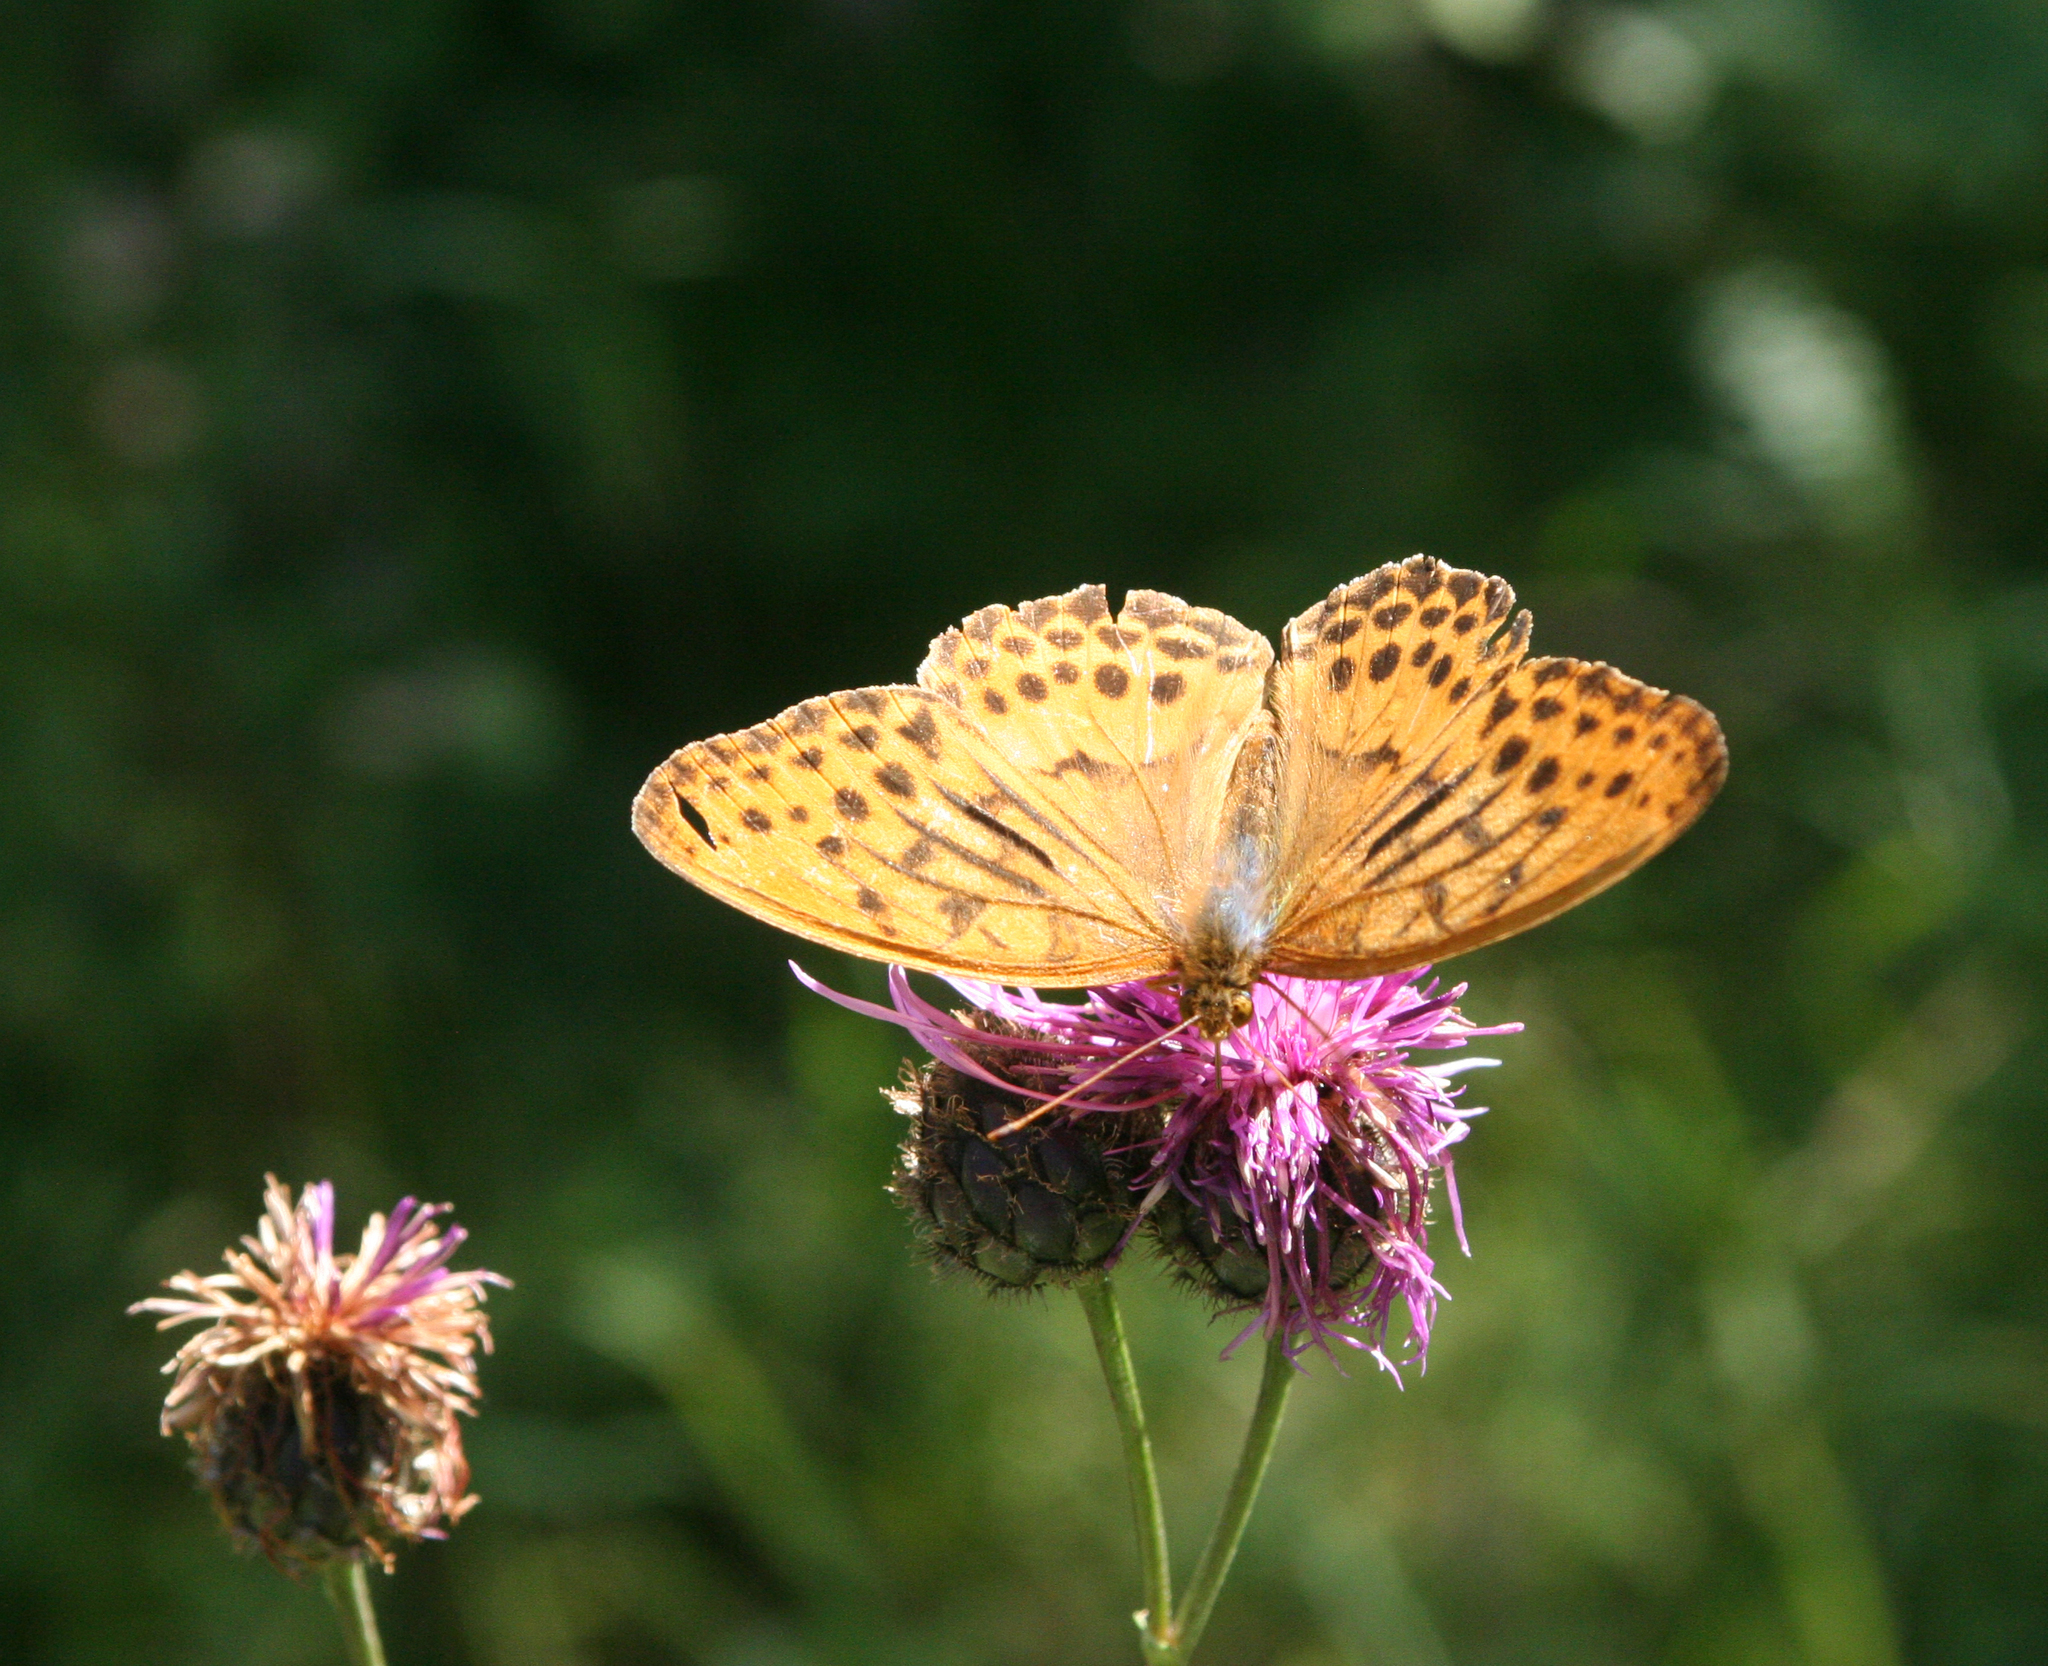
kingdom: Animalia
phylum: Arthropoda
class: Insecta
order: Lepidoptera
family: Nymphalidae
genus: Damora
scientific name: Damora sagana
